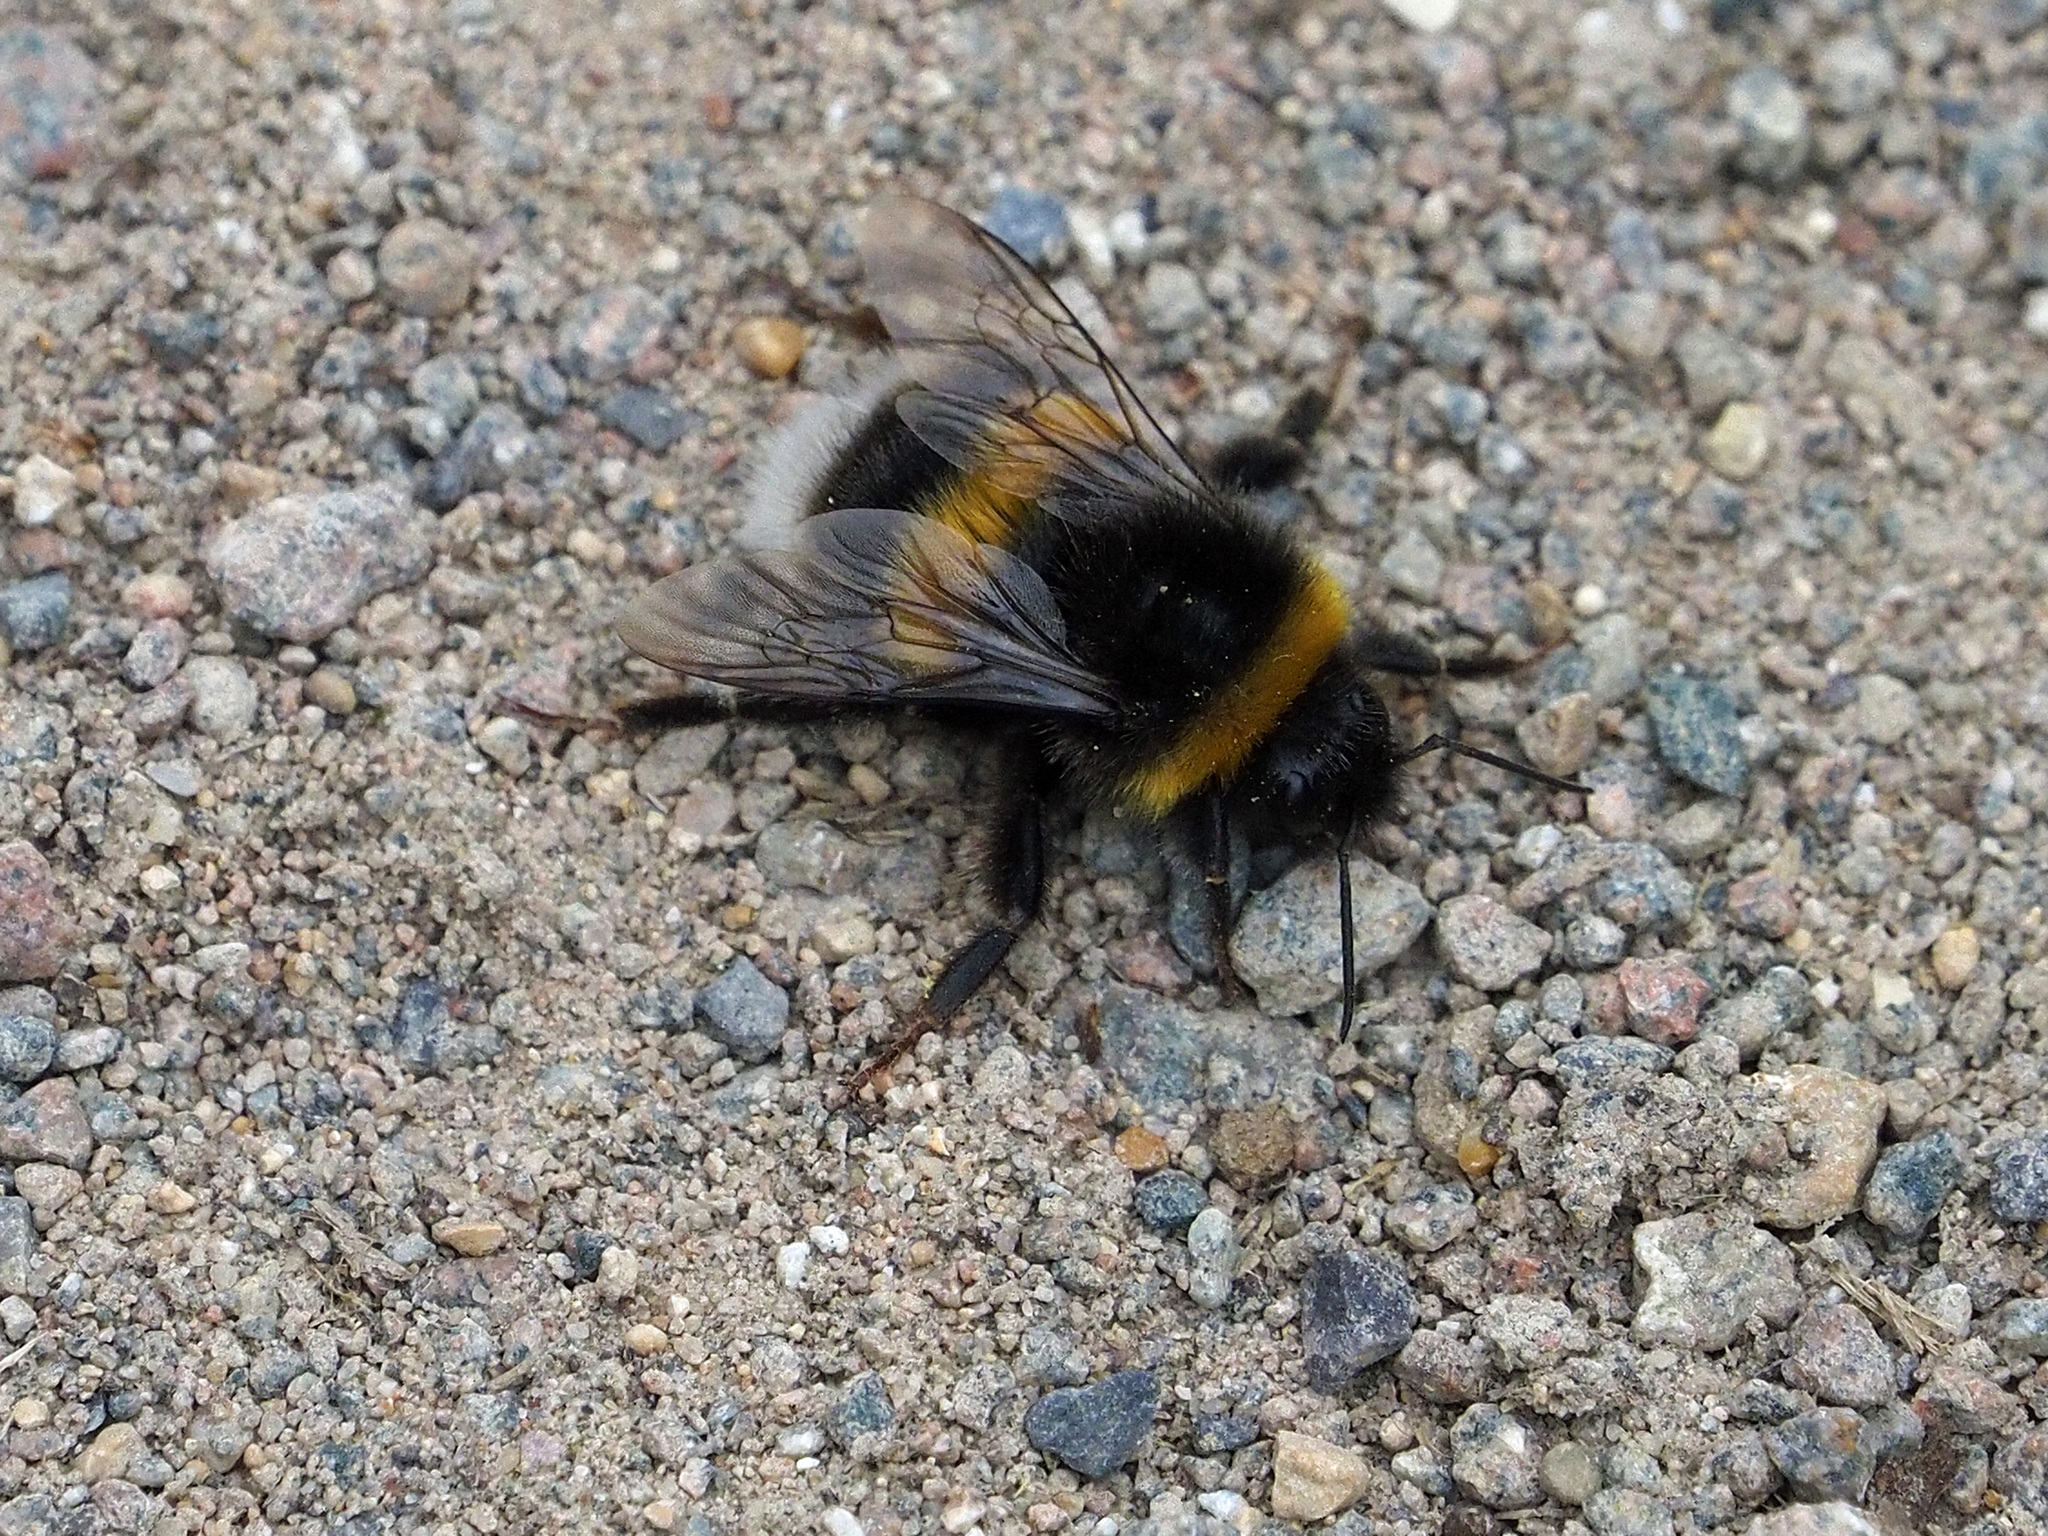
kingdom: Animalia
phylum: Arthropoda
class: Insecta
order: Hymenoptera
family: Apidae
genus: Bombus
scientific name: Bombus terrestris
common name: Buff-tailed bumblebee
